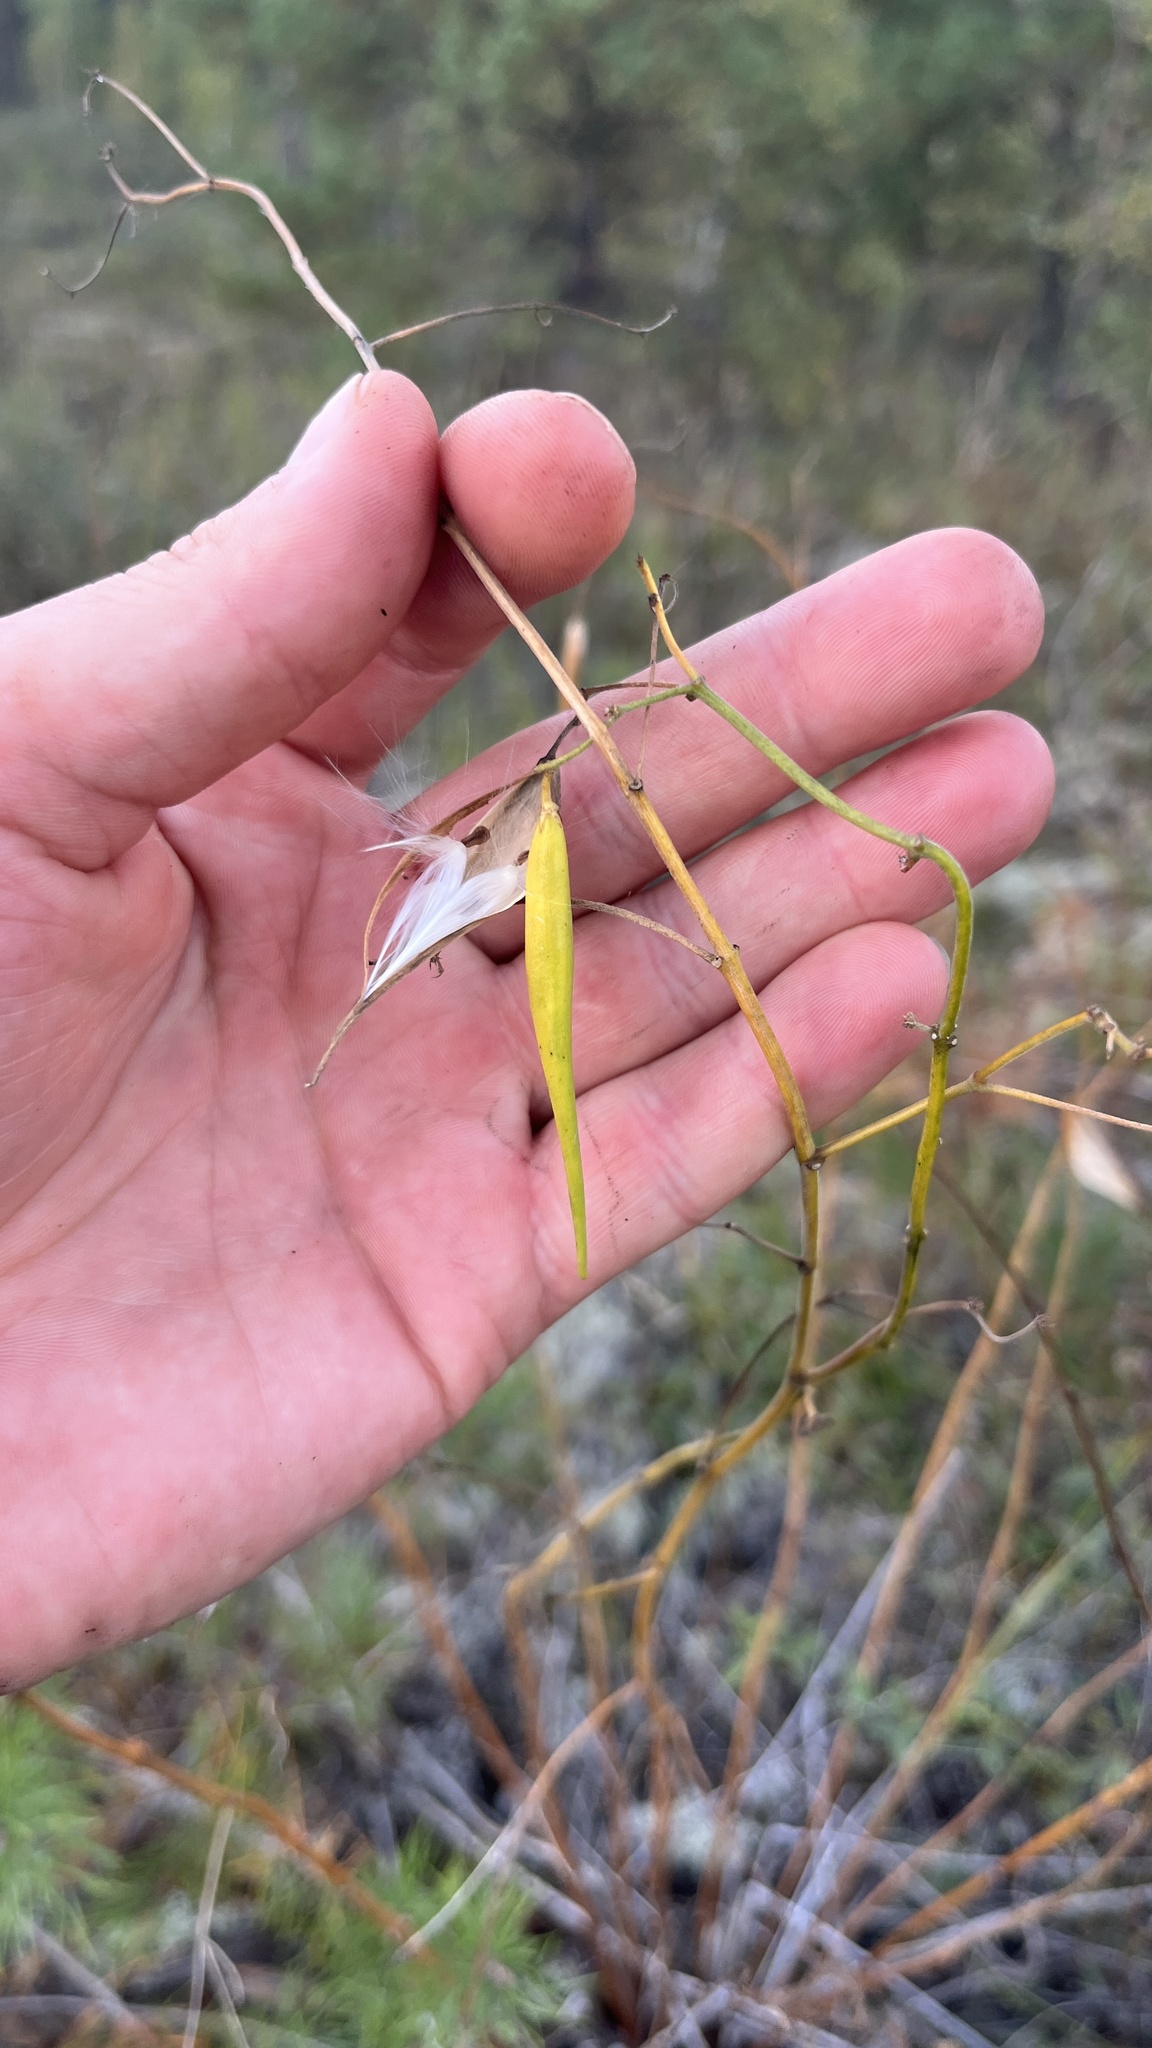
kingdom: Plantae
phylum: Tracheophyta
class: Magnoliopsida
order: Gentianales
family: Apocynaceae
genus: Vincetoxicum
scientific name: Vincetoxicum hirundinaria
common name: White swallowwort
